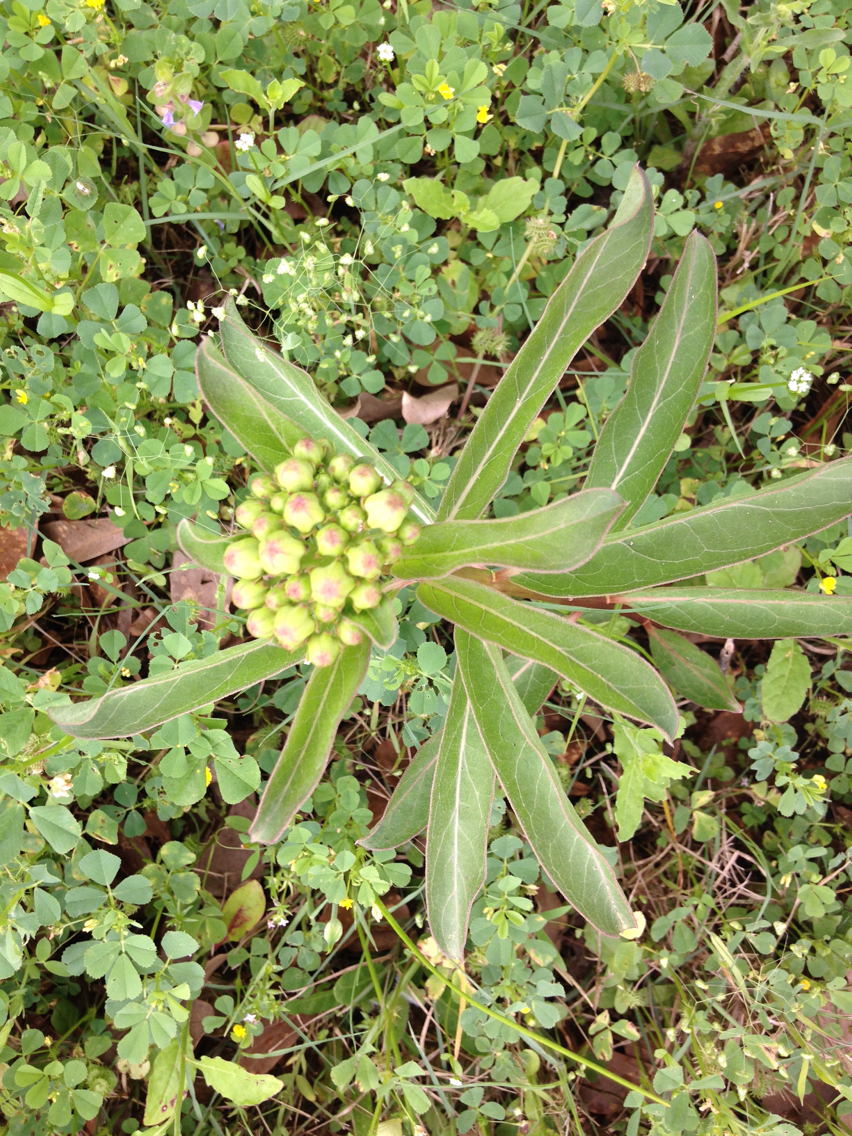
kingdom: Plantae
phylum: Tracheophyta
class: Magnoliopsida
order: Gentianales
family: Apocynaceae
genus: Asclepias
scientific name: Asclepias viridis
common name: Antelope-horns
